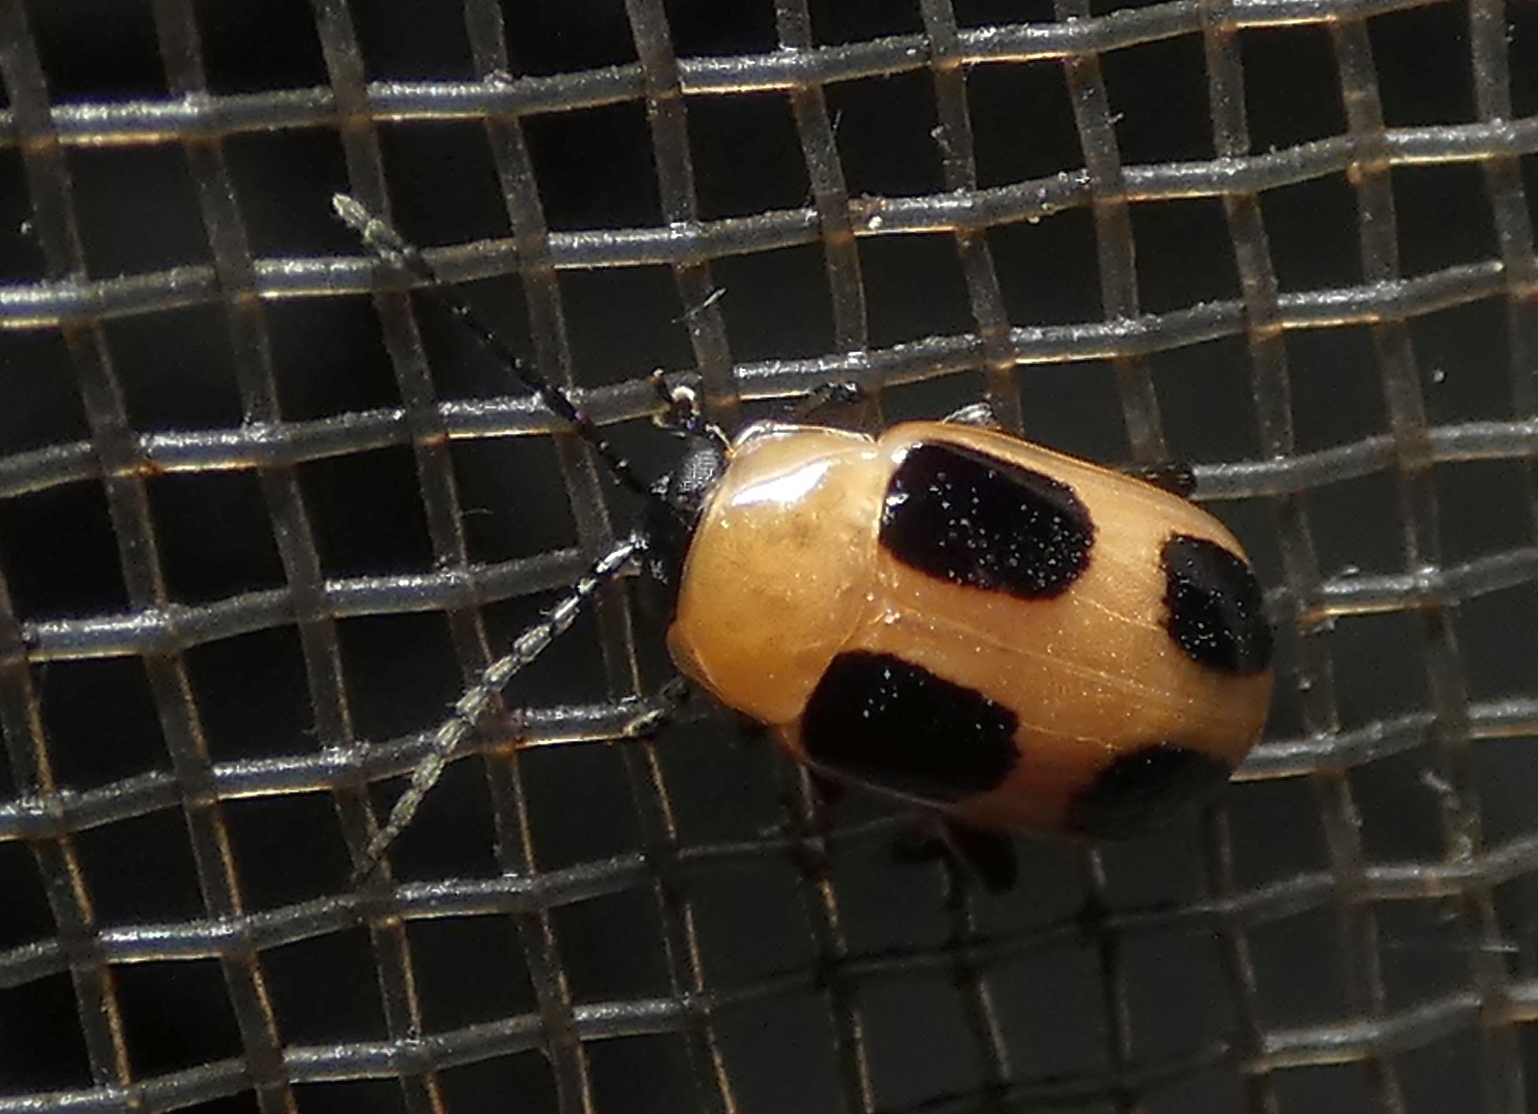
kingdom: Animalia
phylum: Arthropoda
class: Insecta
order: Coleoptera
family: Chrysomelidae
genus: Lacpatica
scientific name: Lacpatica
